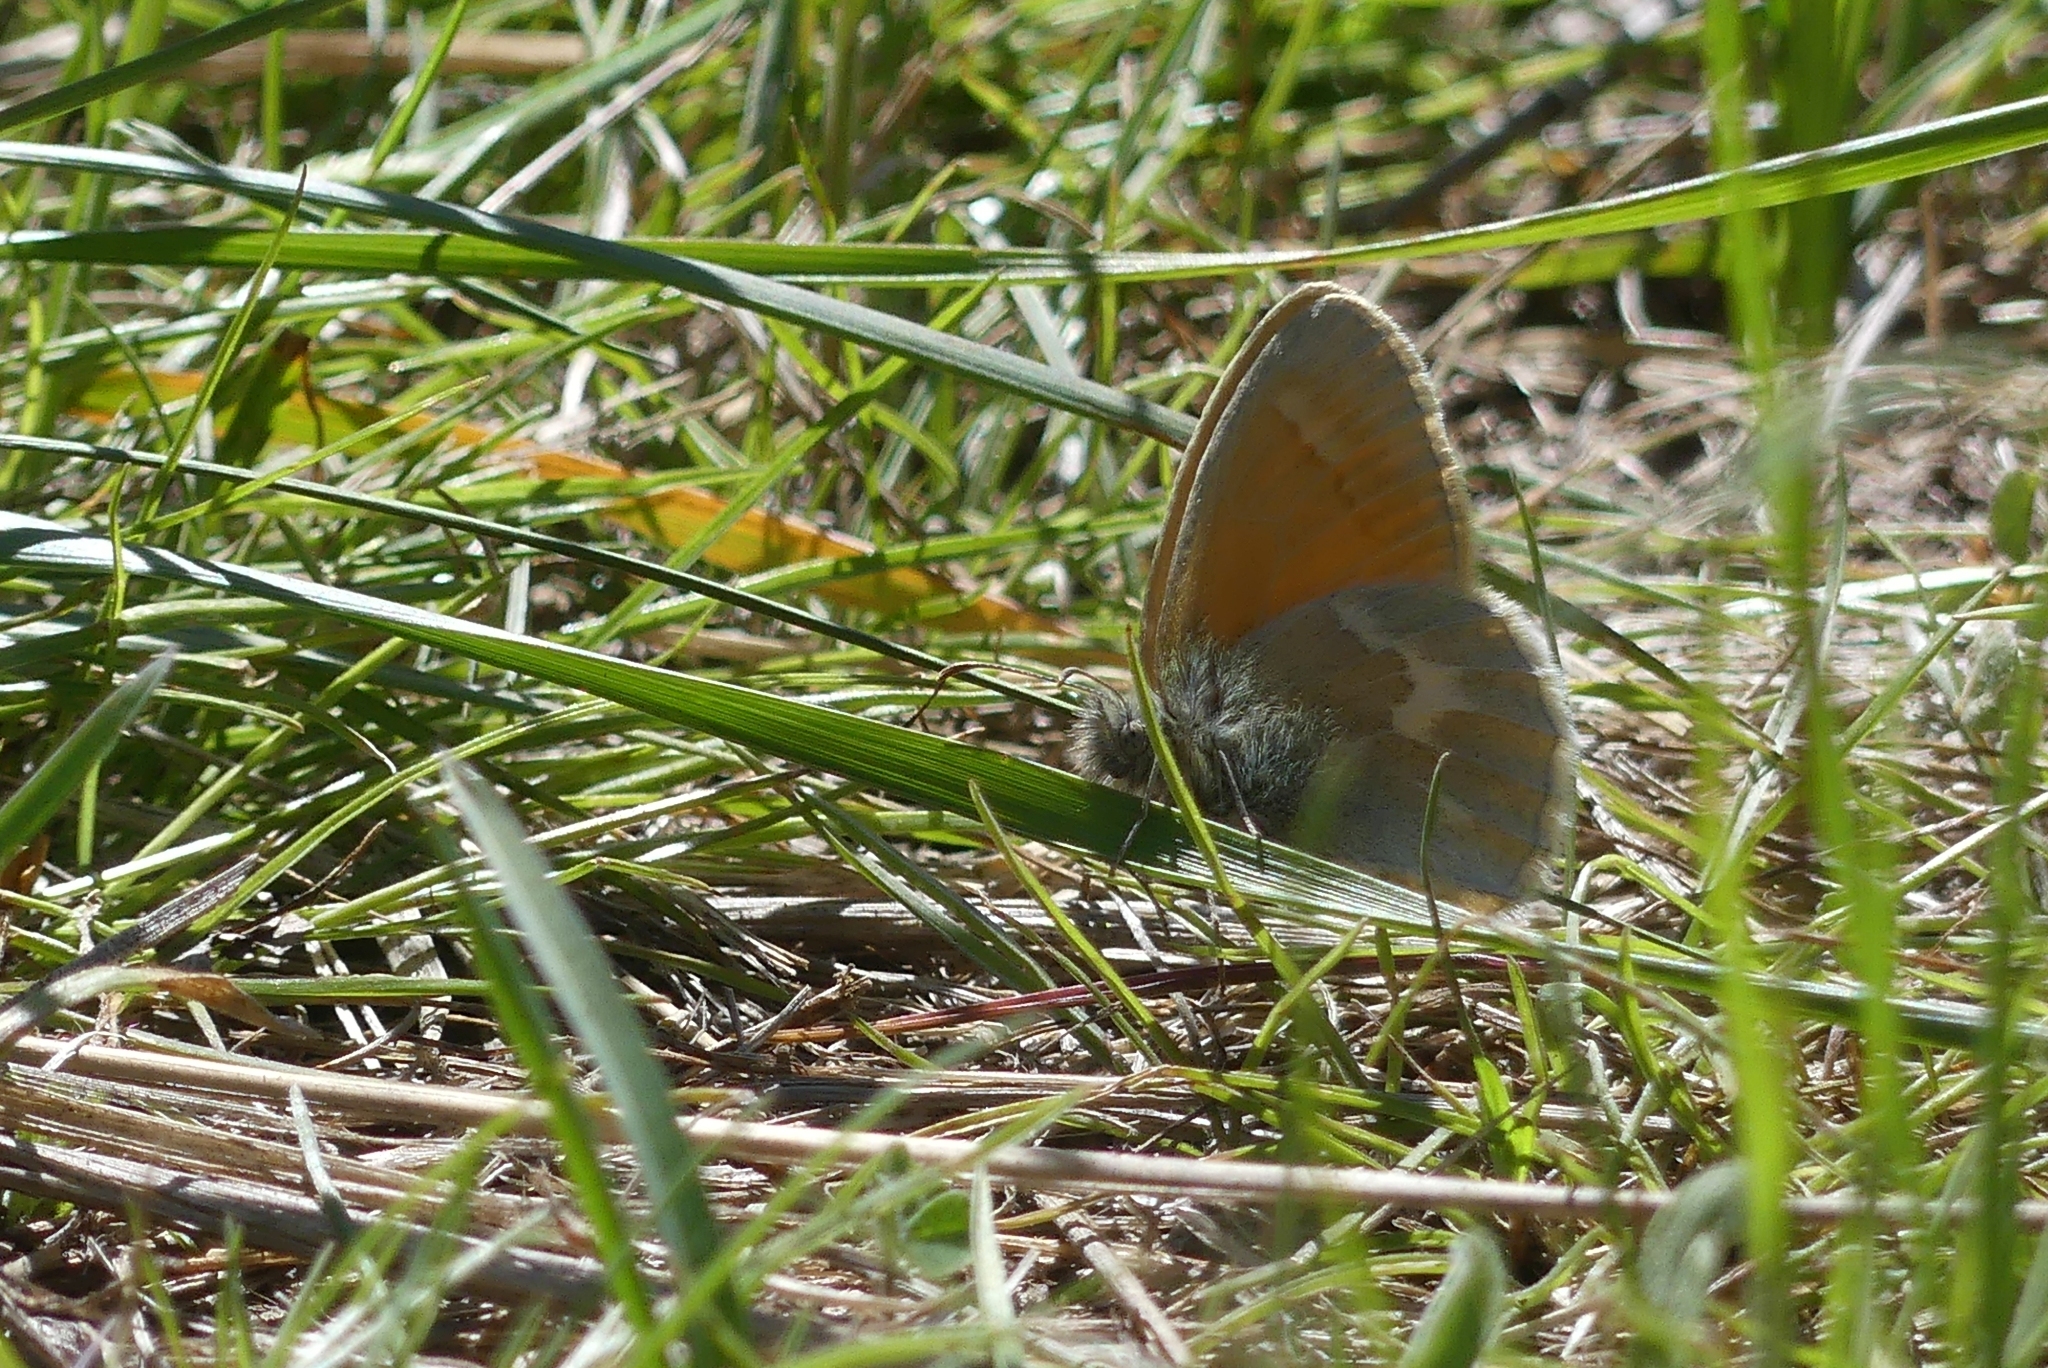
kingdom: Animalia
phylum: Arthropoda
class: Insecta
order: Lepidoptera
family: Nymphalidae
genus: Coenonympha
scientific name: Coenonympha california
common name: Common ringlet
